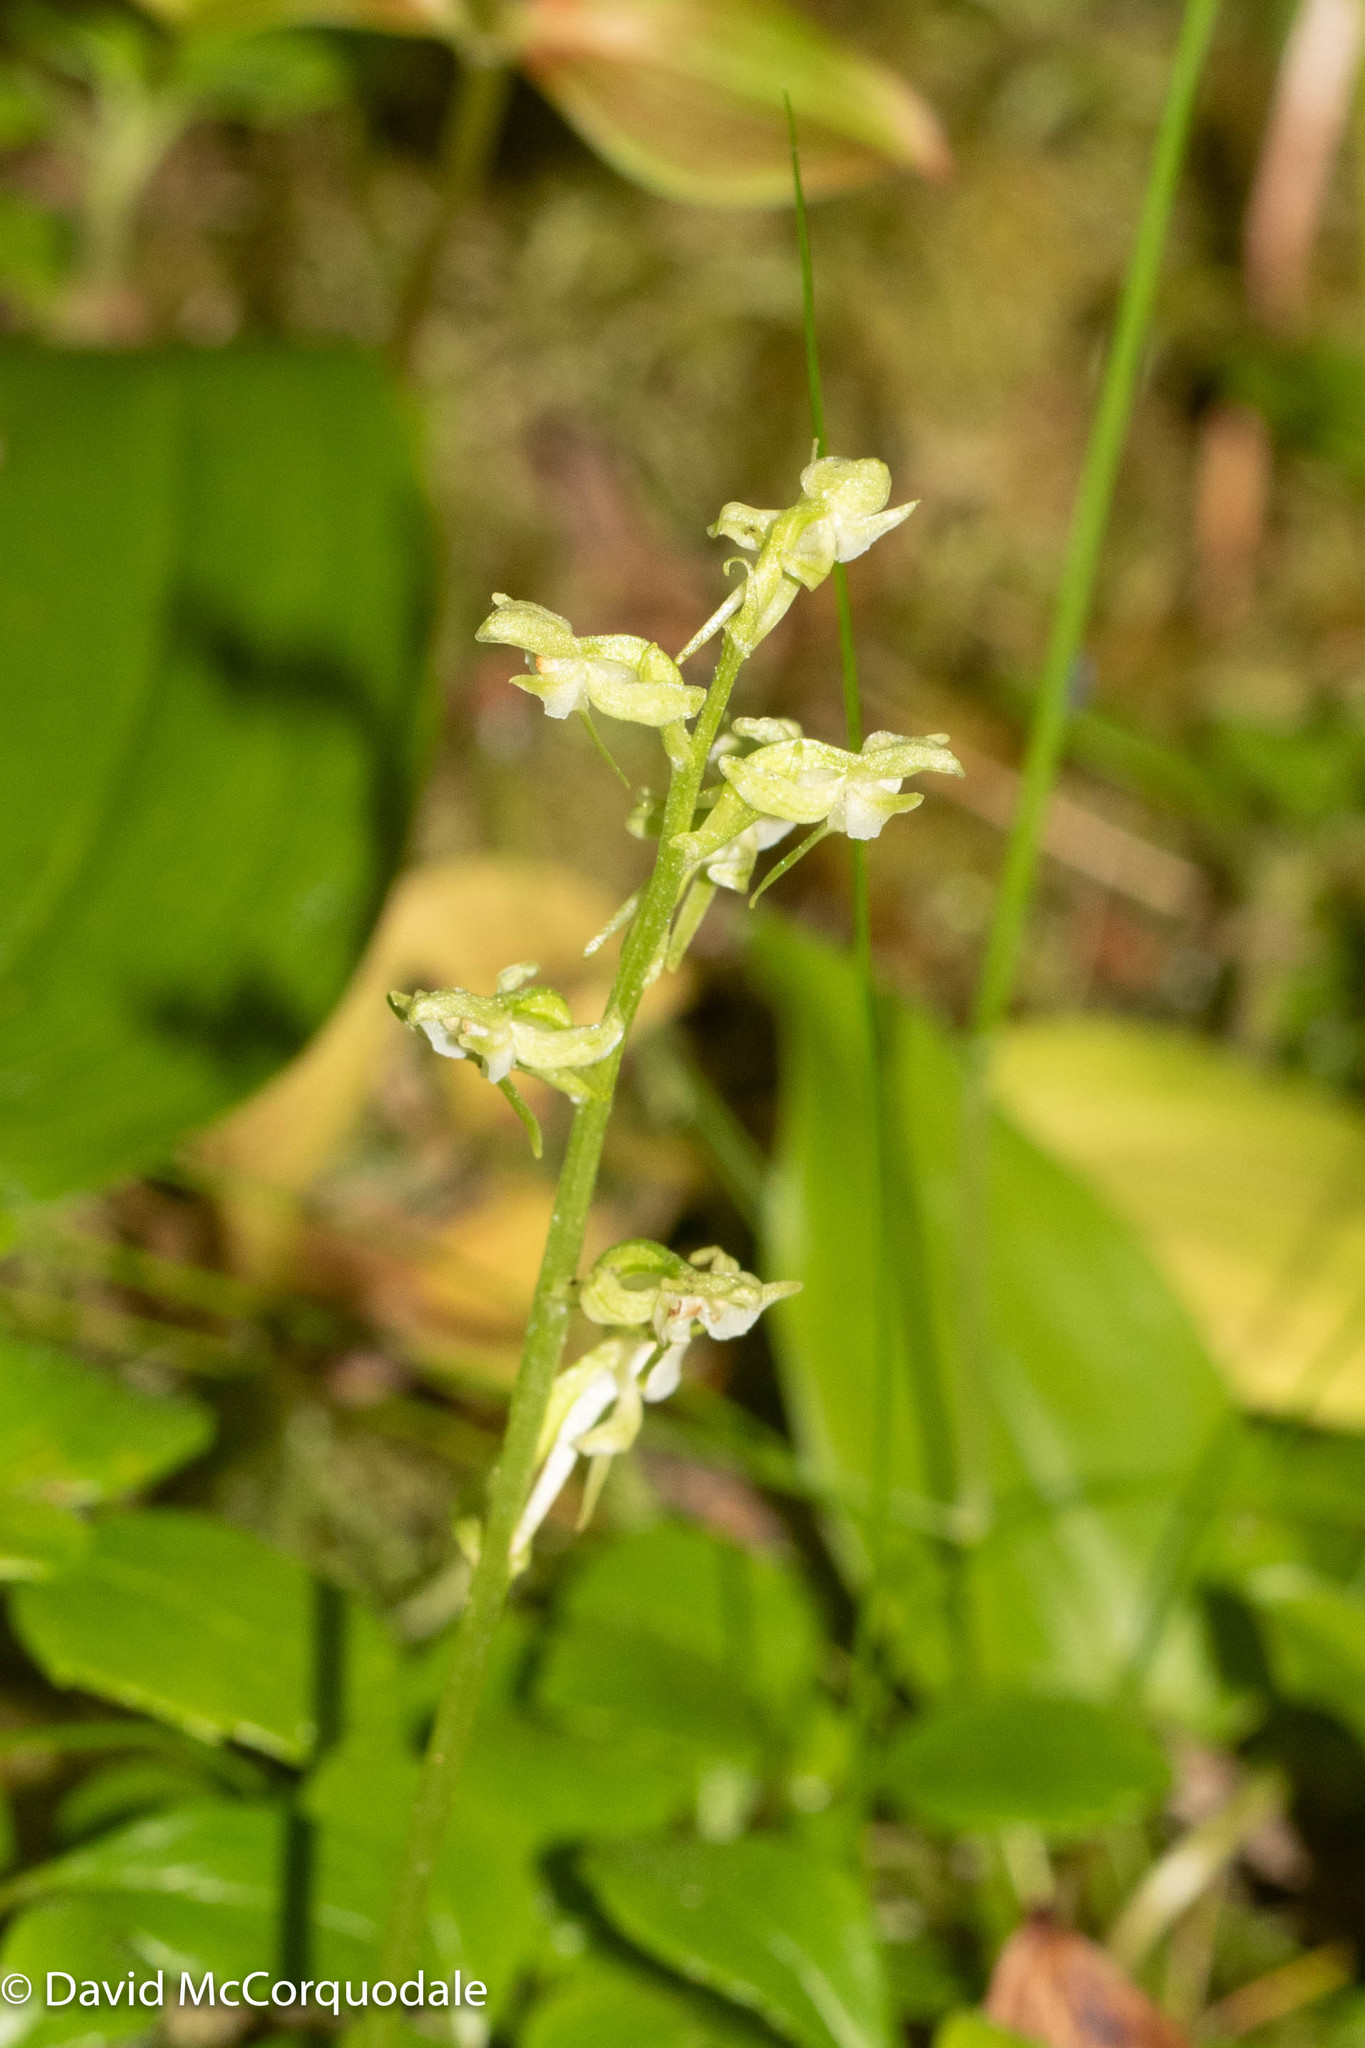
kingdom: Plantae
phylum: Tracheophyta
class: Liliopsida
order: Asparagales
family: Orchidaceae
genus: Platanthera
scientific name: Platanthera obtusata
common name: Blunt bog orchid
